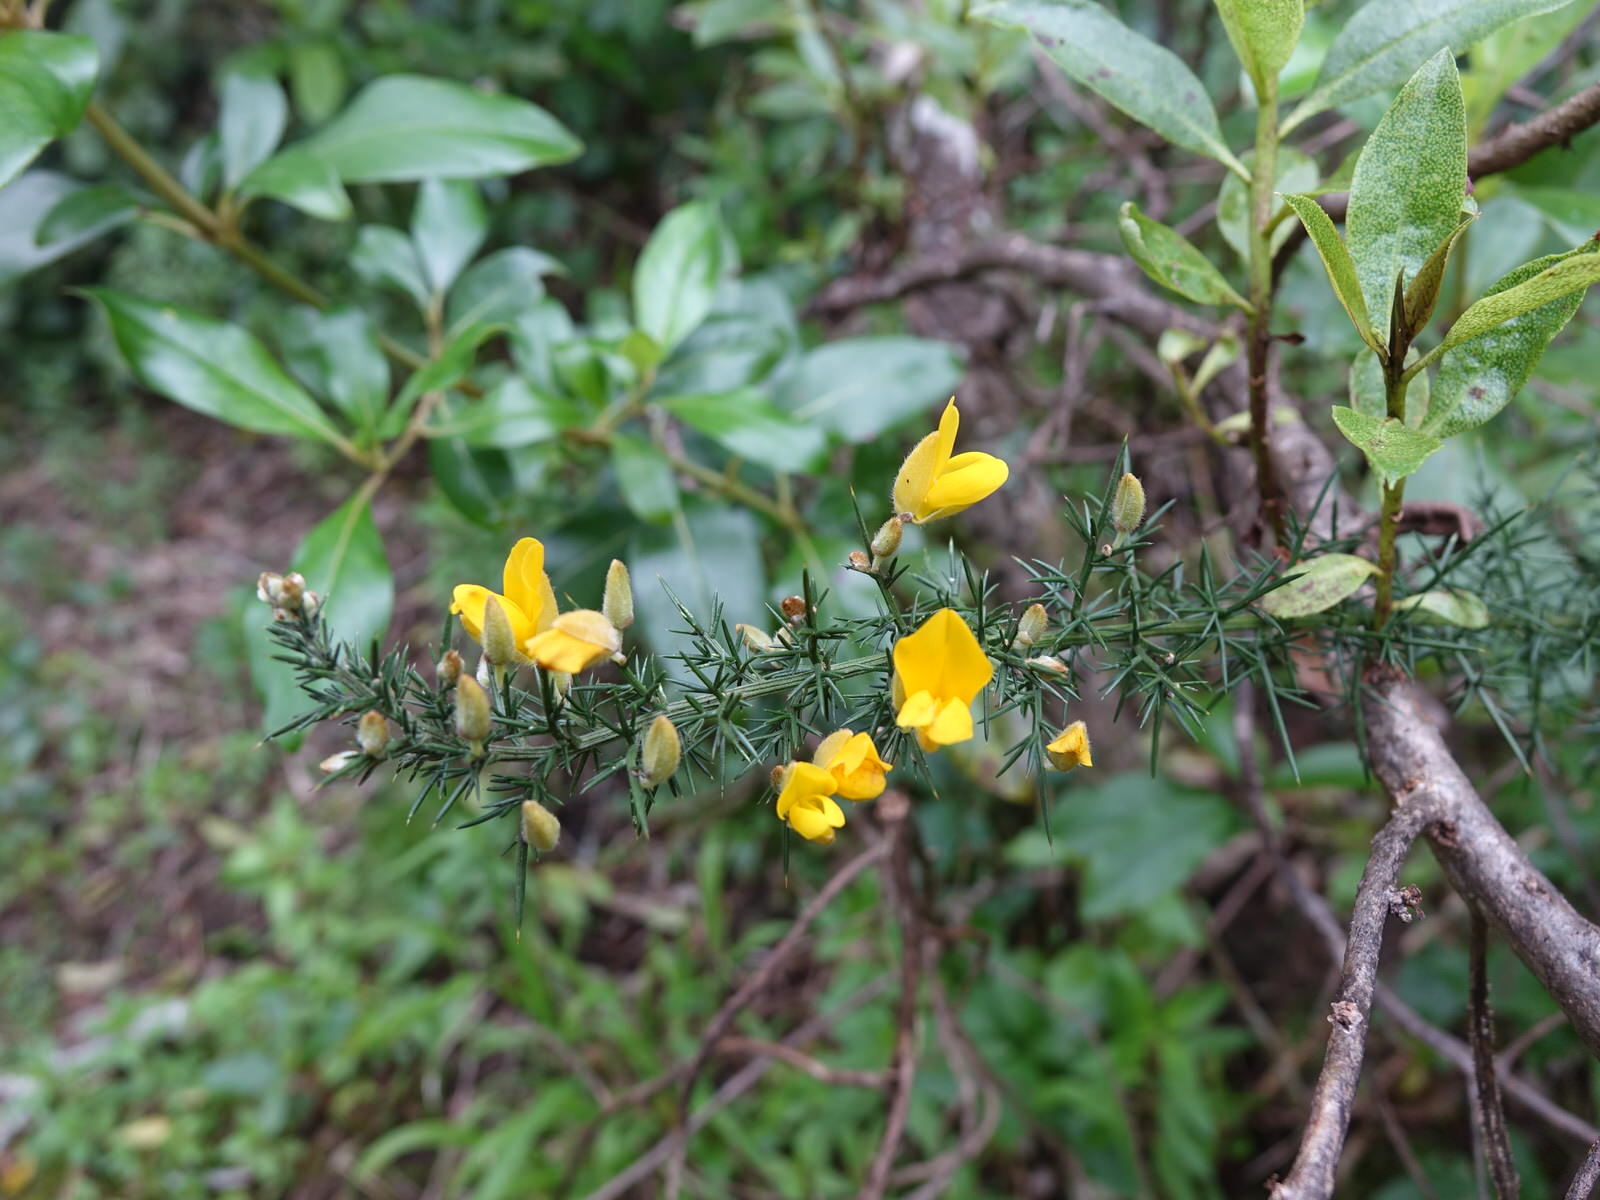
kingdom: Plantae
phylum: Tracheophyta
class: Magnoliopsida
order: Fabales
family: Fabaceae
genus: Ulex
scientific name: Ulex europaeus
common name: Common gorse
